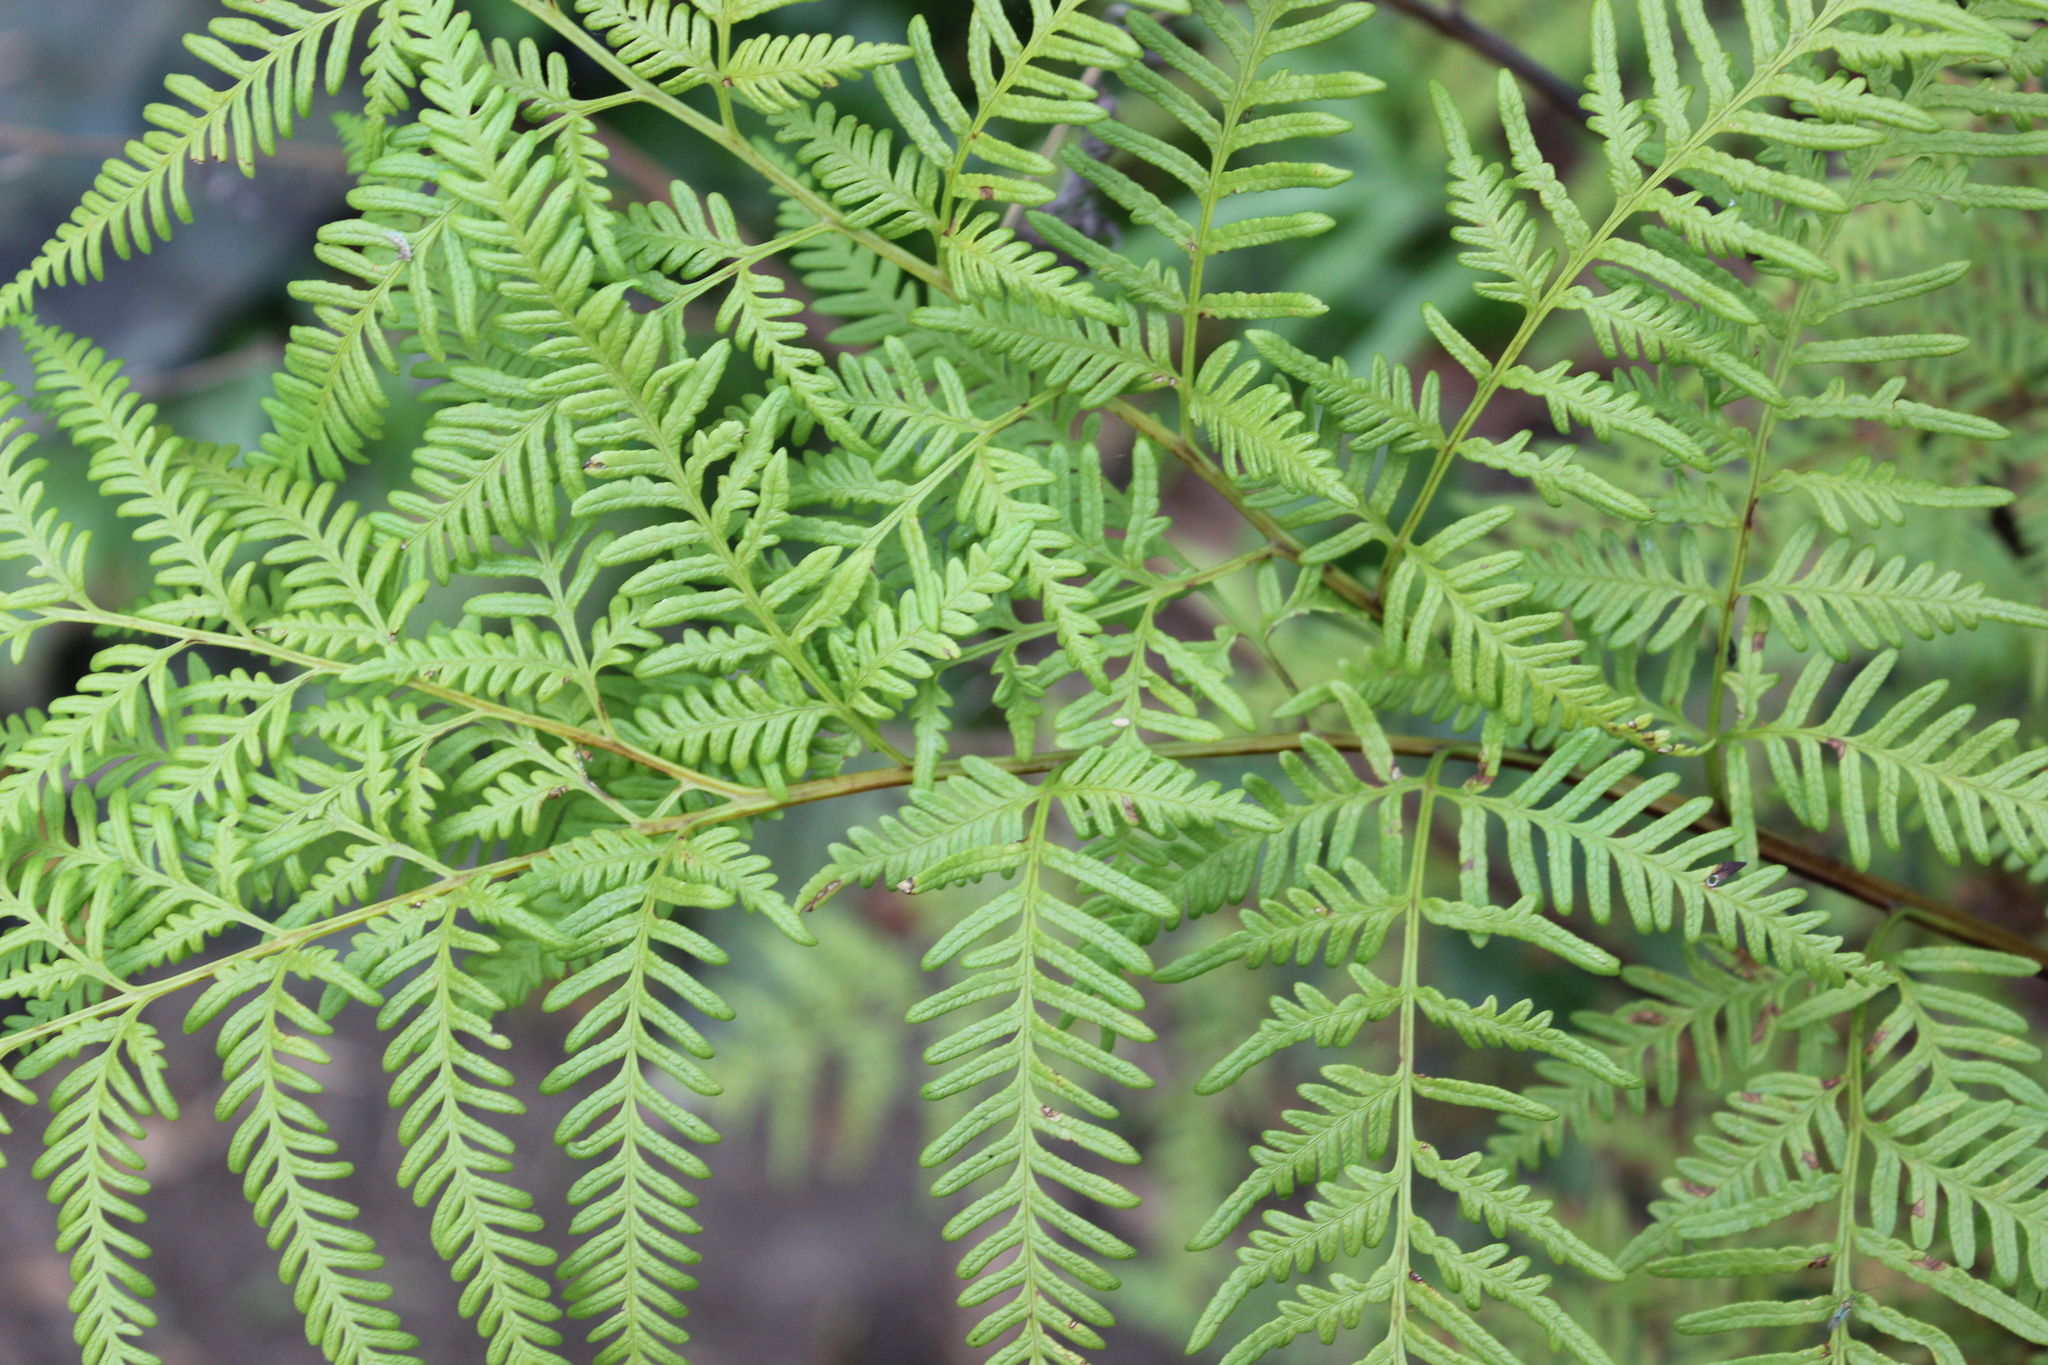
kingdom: Plantae
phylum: Tracheophyta
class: Polypodiopsida
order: Polypodiales
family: Pteridaceae
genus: Pteris
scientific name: Pteris tremula
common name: Australian brake
